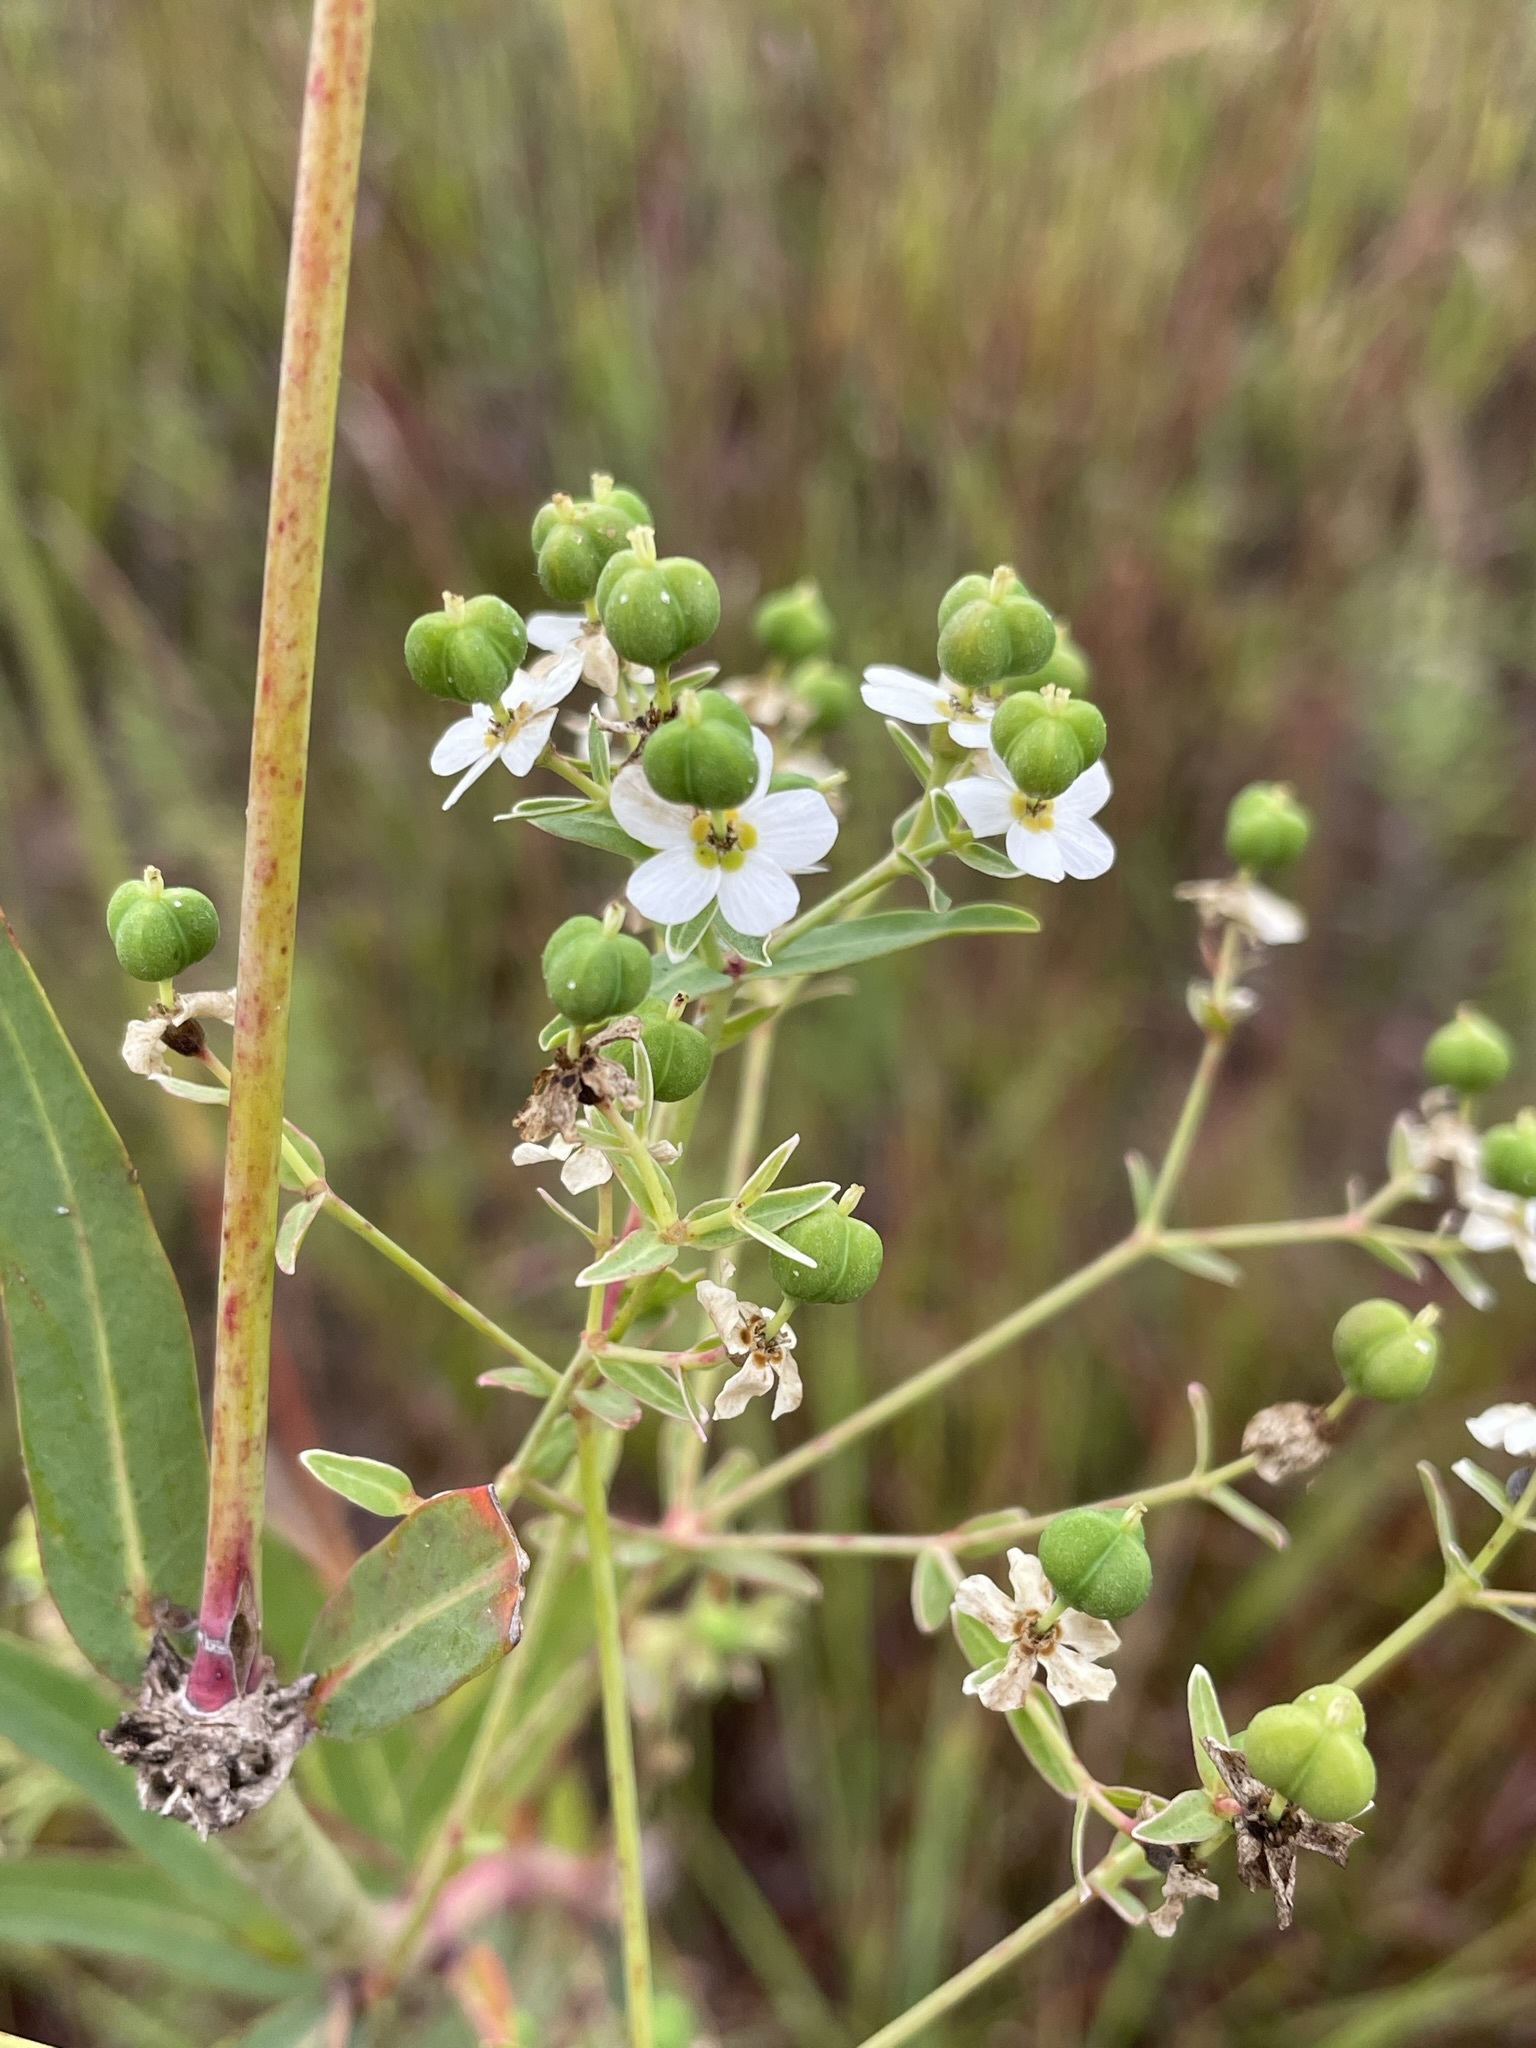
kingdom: Plantae
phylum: Tracheophyta
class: Magnoliopsida
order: Malpighiales
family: Euphorbiaceae
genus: Euphorbia
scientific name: Euphorbia corollata
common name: Flowering spurge
